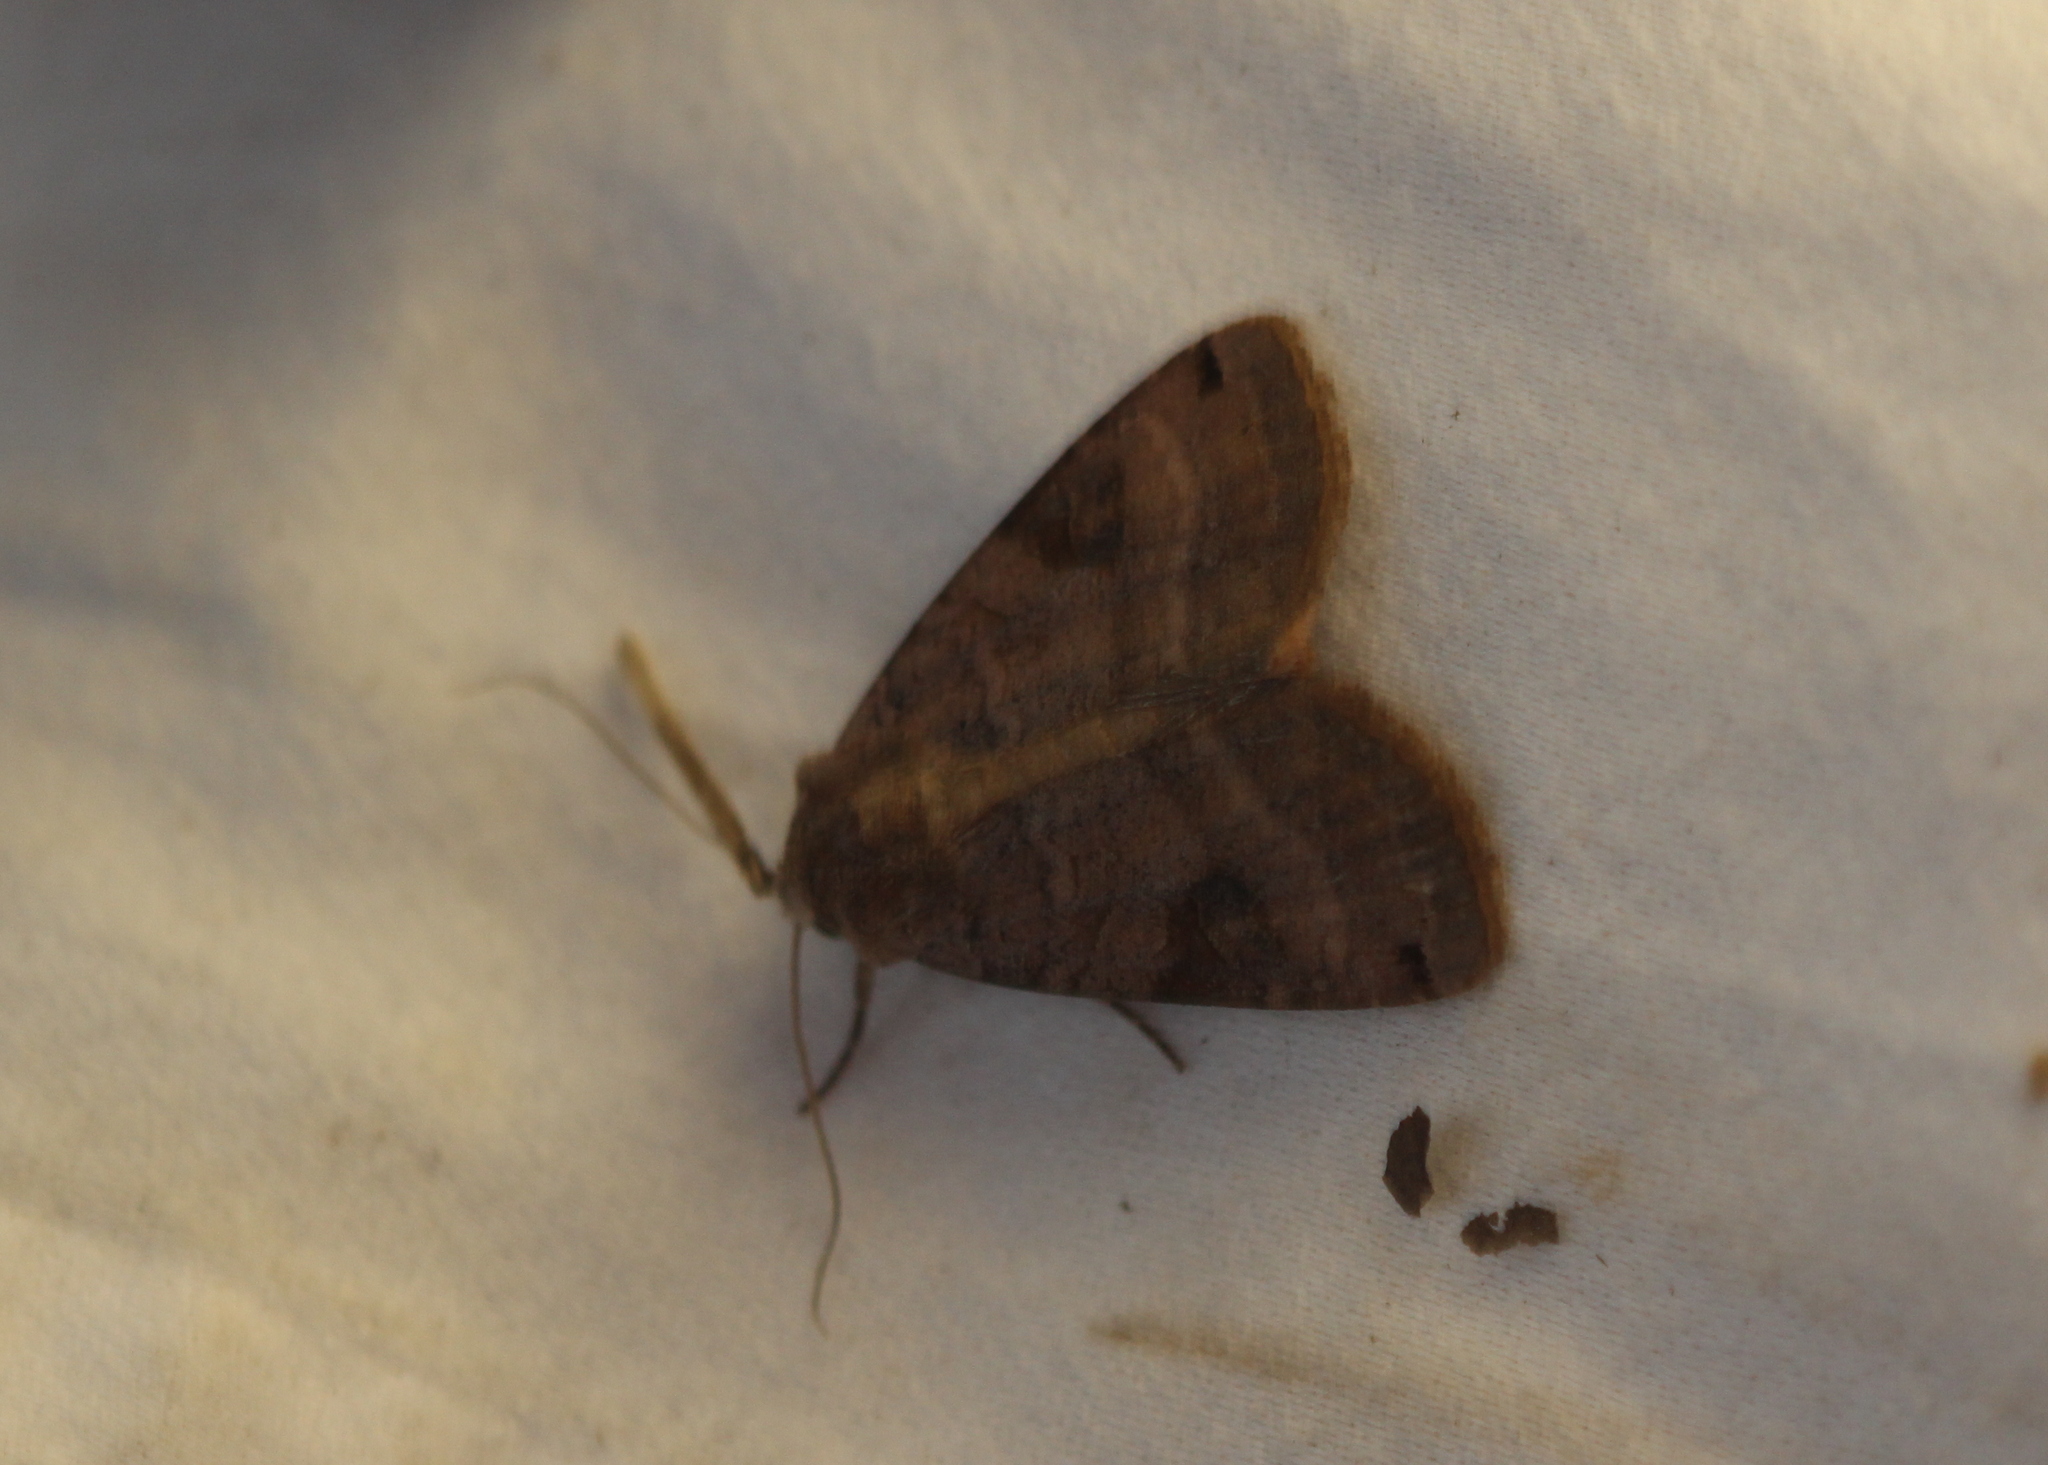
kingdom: Animalia
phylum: Arthropoda
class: Insecta
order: Lepidoptera
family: Noctuidae
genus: Xestia
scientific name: Xestia smithii
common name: Smith's dart
